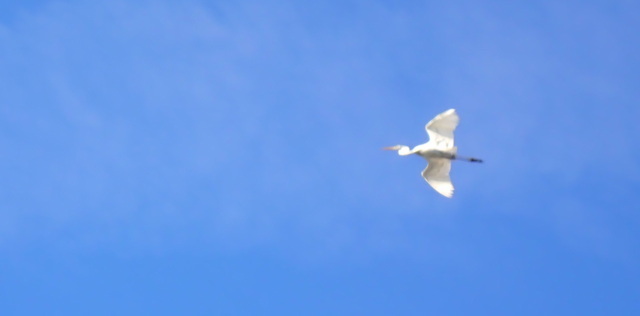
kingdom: Animalia
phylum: Chordata
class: Aves
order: Pelecaniformes
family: Ardeidae
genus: Ardea
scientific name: Ardea alba
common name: Great egret
